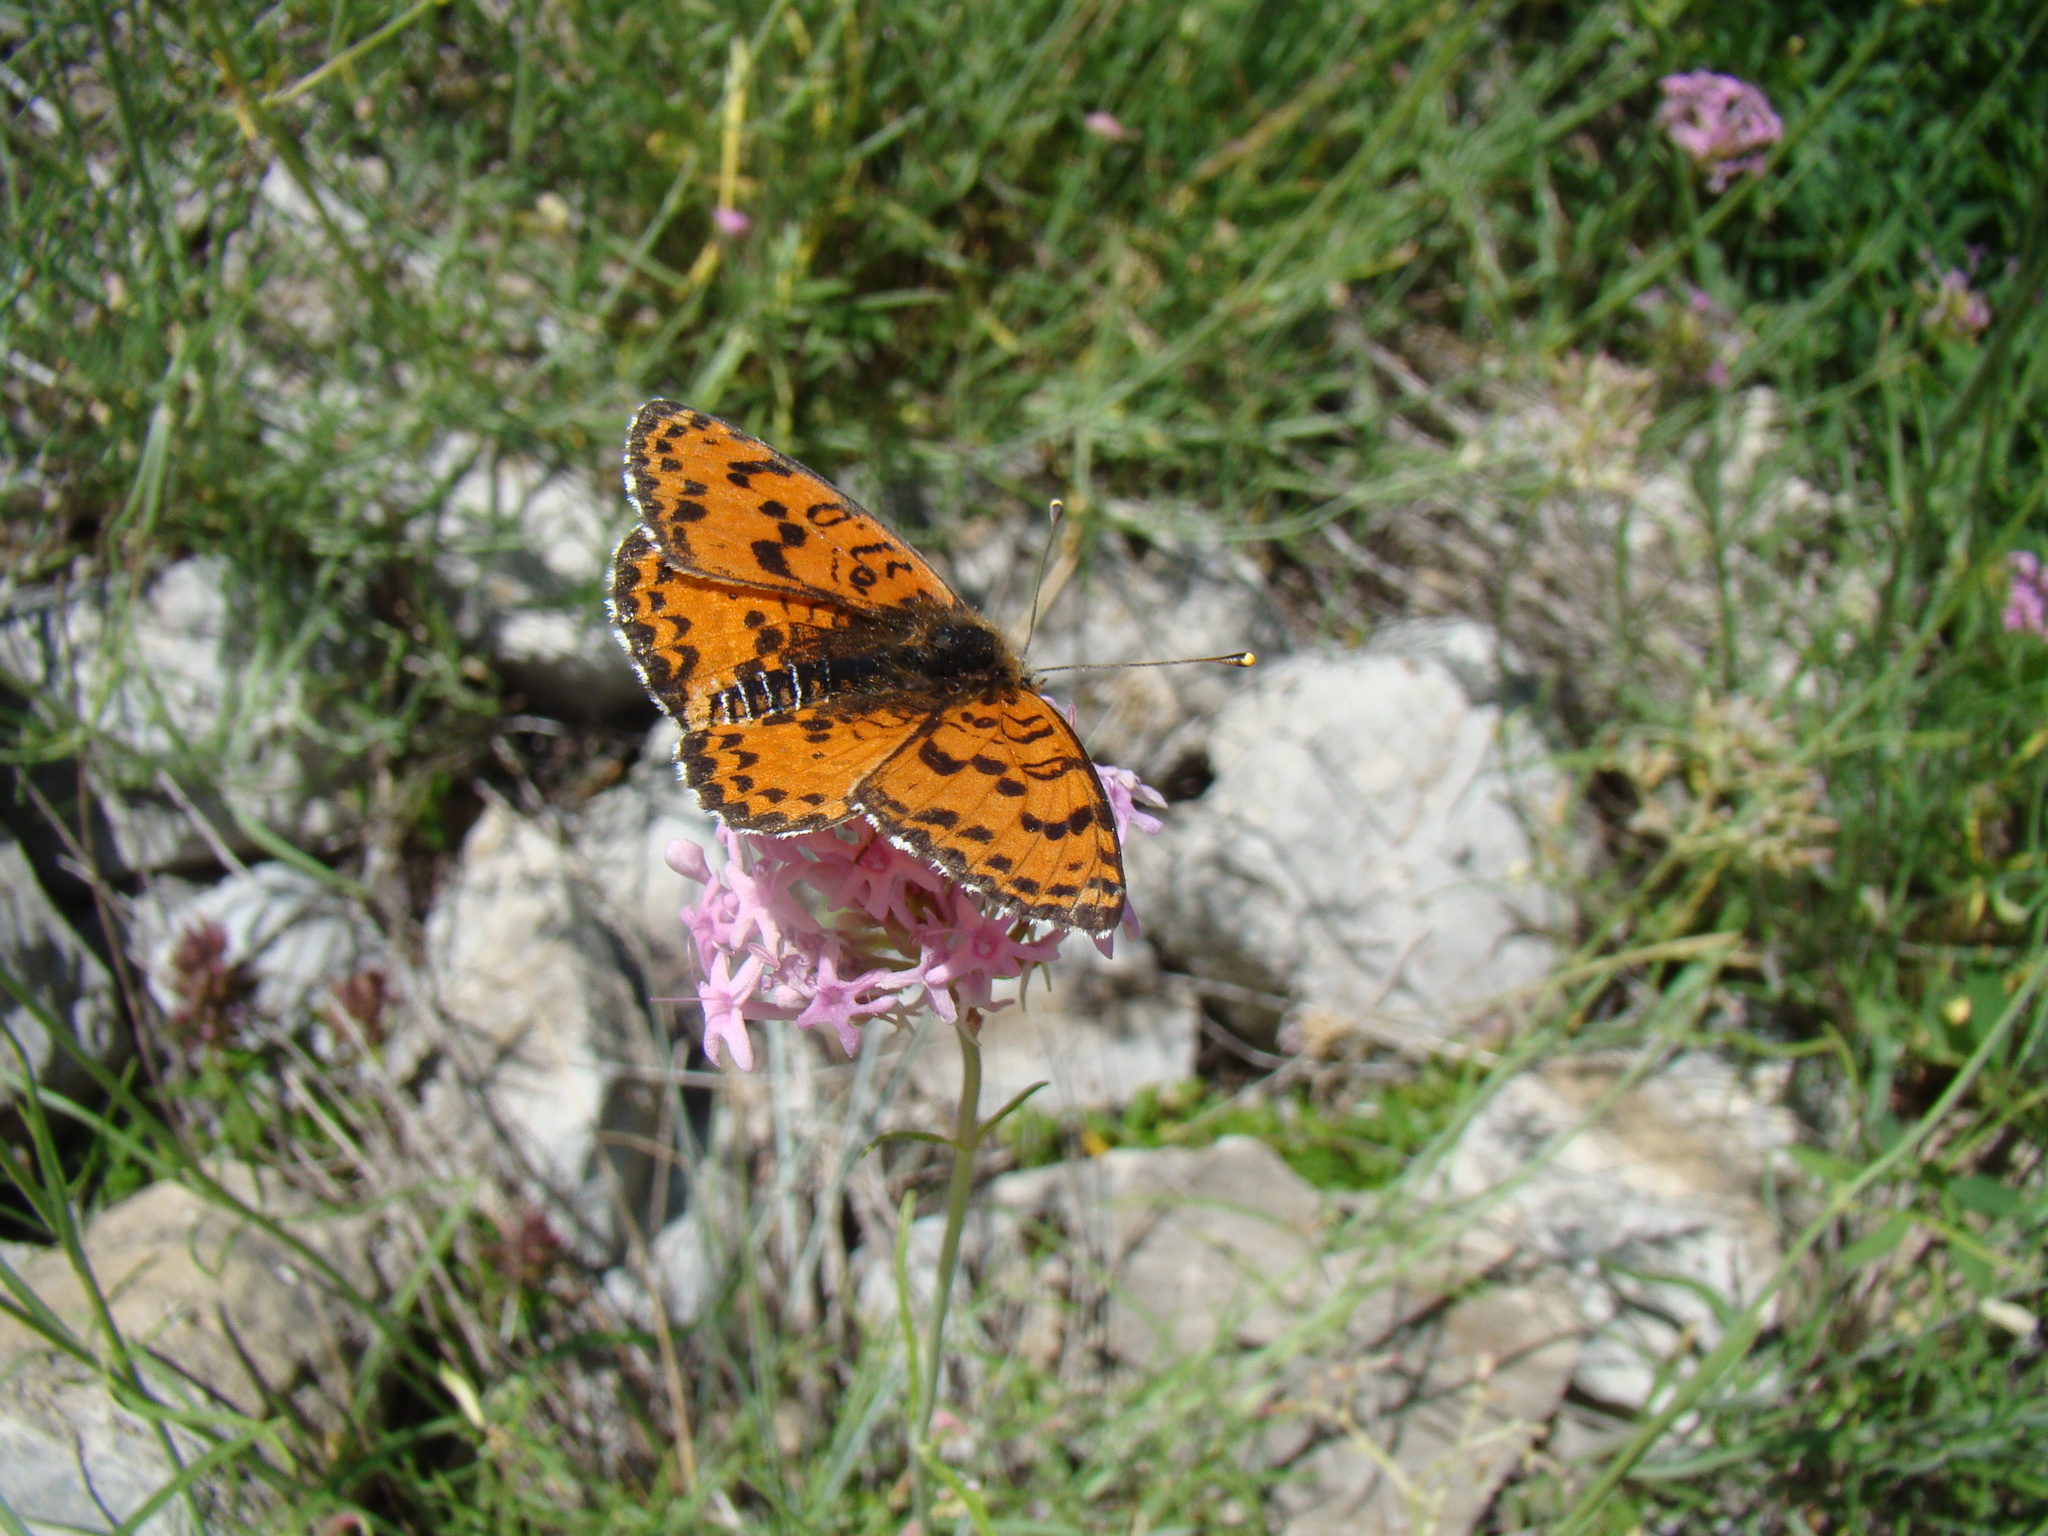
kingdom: Animalia
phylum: Arthropoda
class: Insecta
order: Lepidoptera
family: Nymphalidae
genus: Melitaea
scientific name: Melitaea didyma
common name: Spotted fritillary
